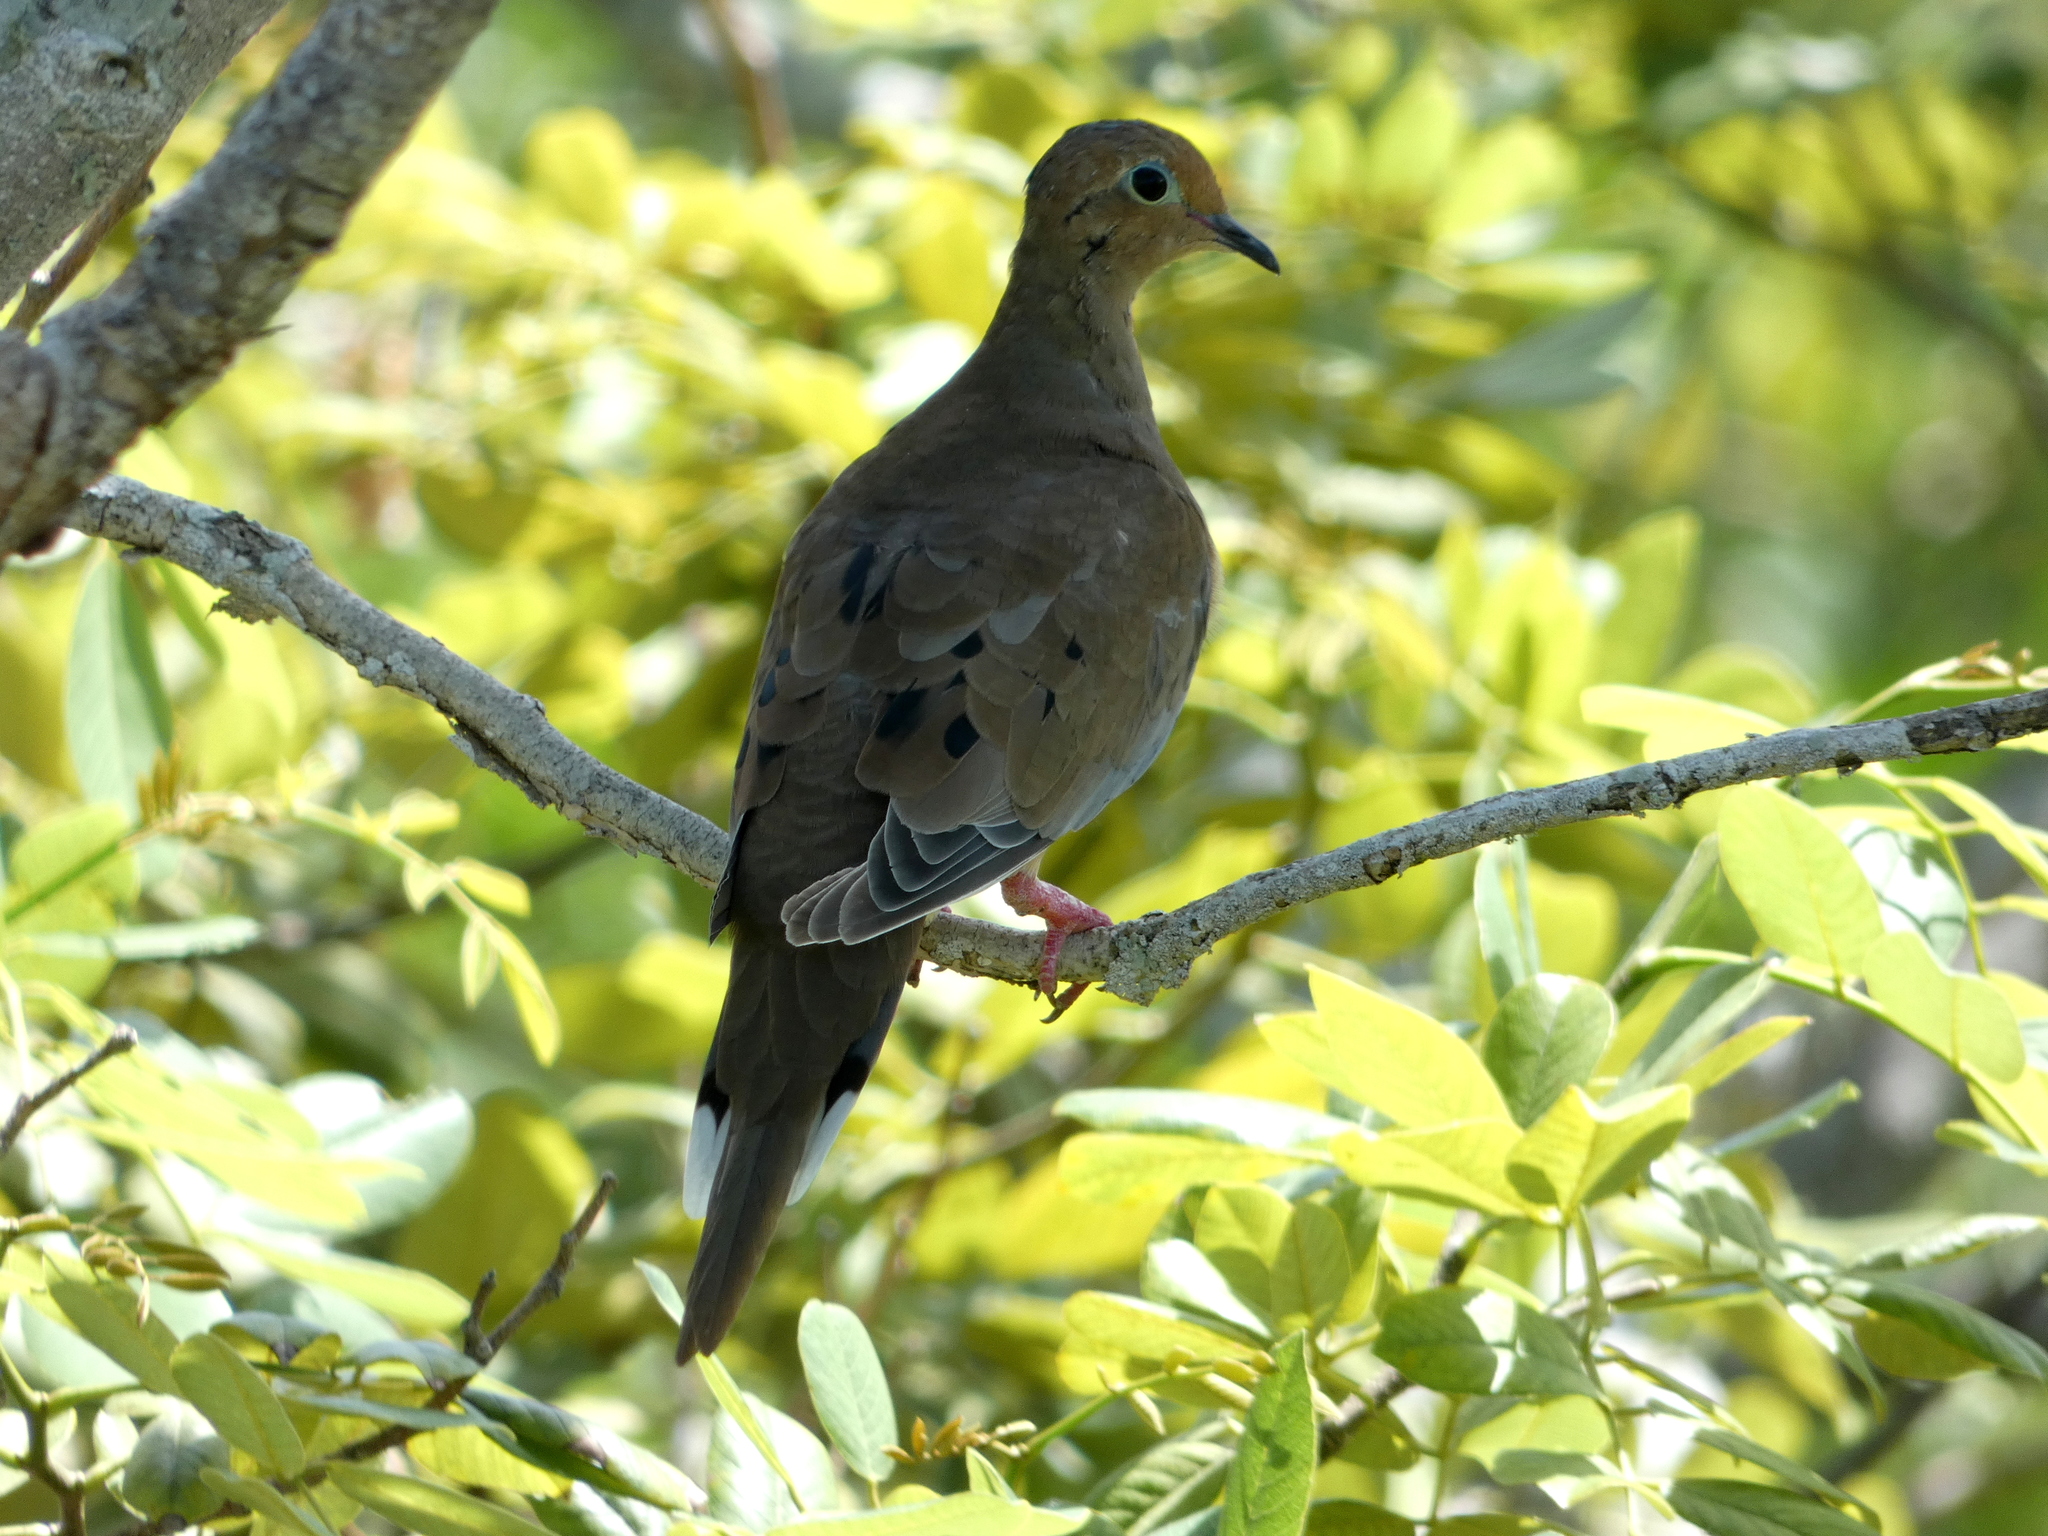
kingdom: Animalia
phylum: Chordata
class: Aves
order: Columbiformes
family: Columbidae
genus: Zenaida
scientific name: Zenaida macroura
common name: Mourning dove
